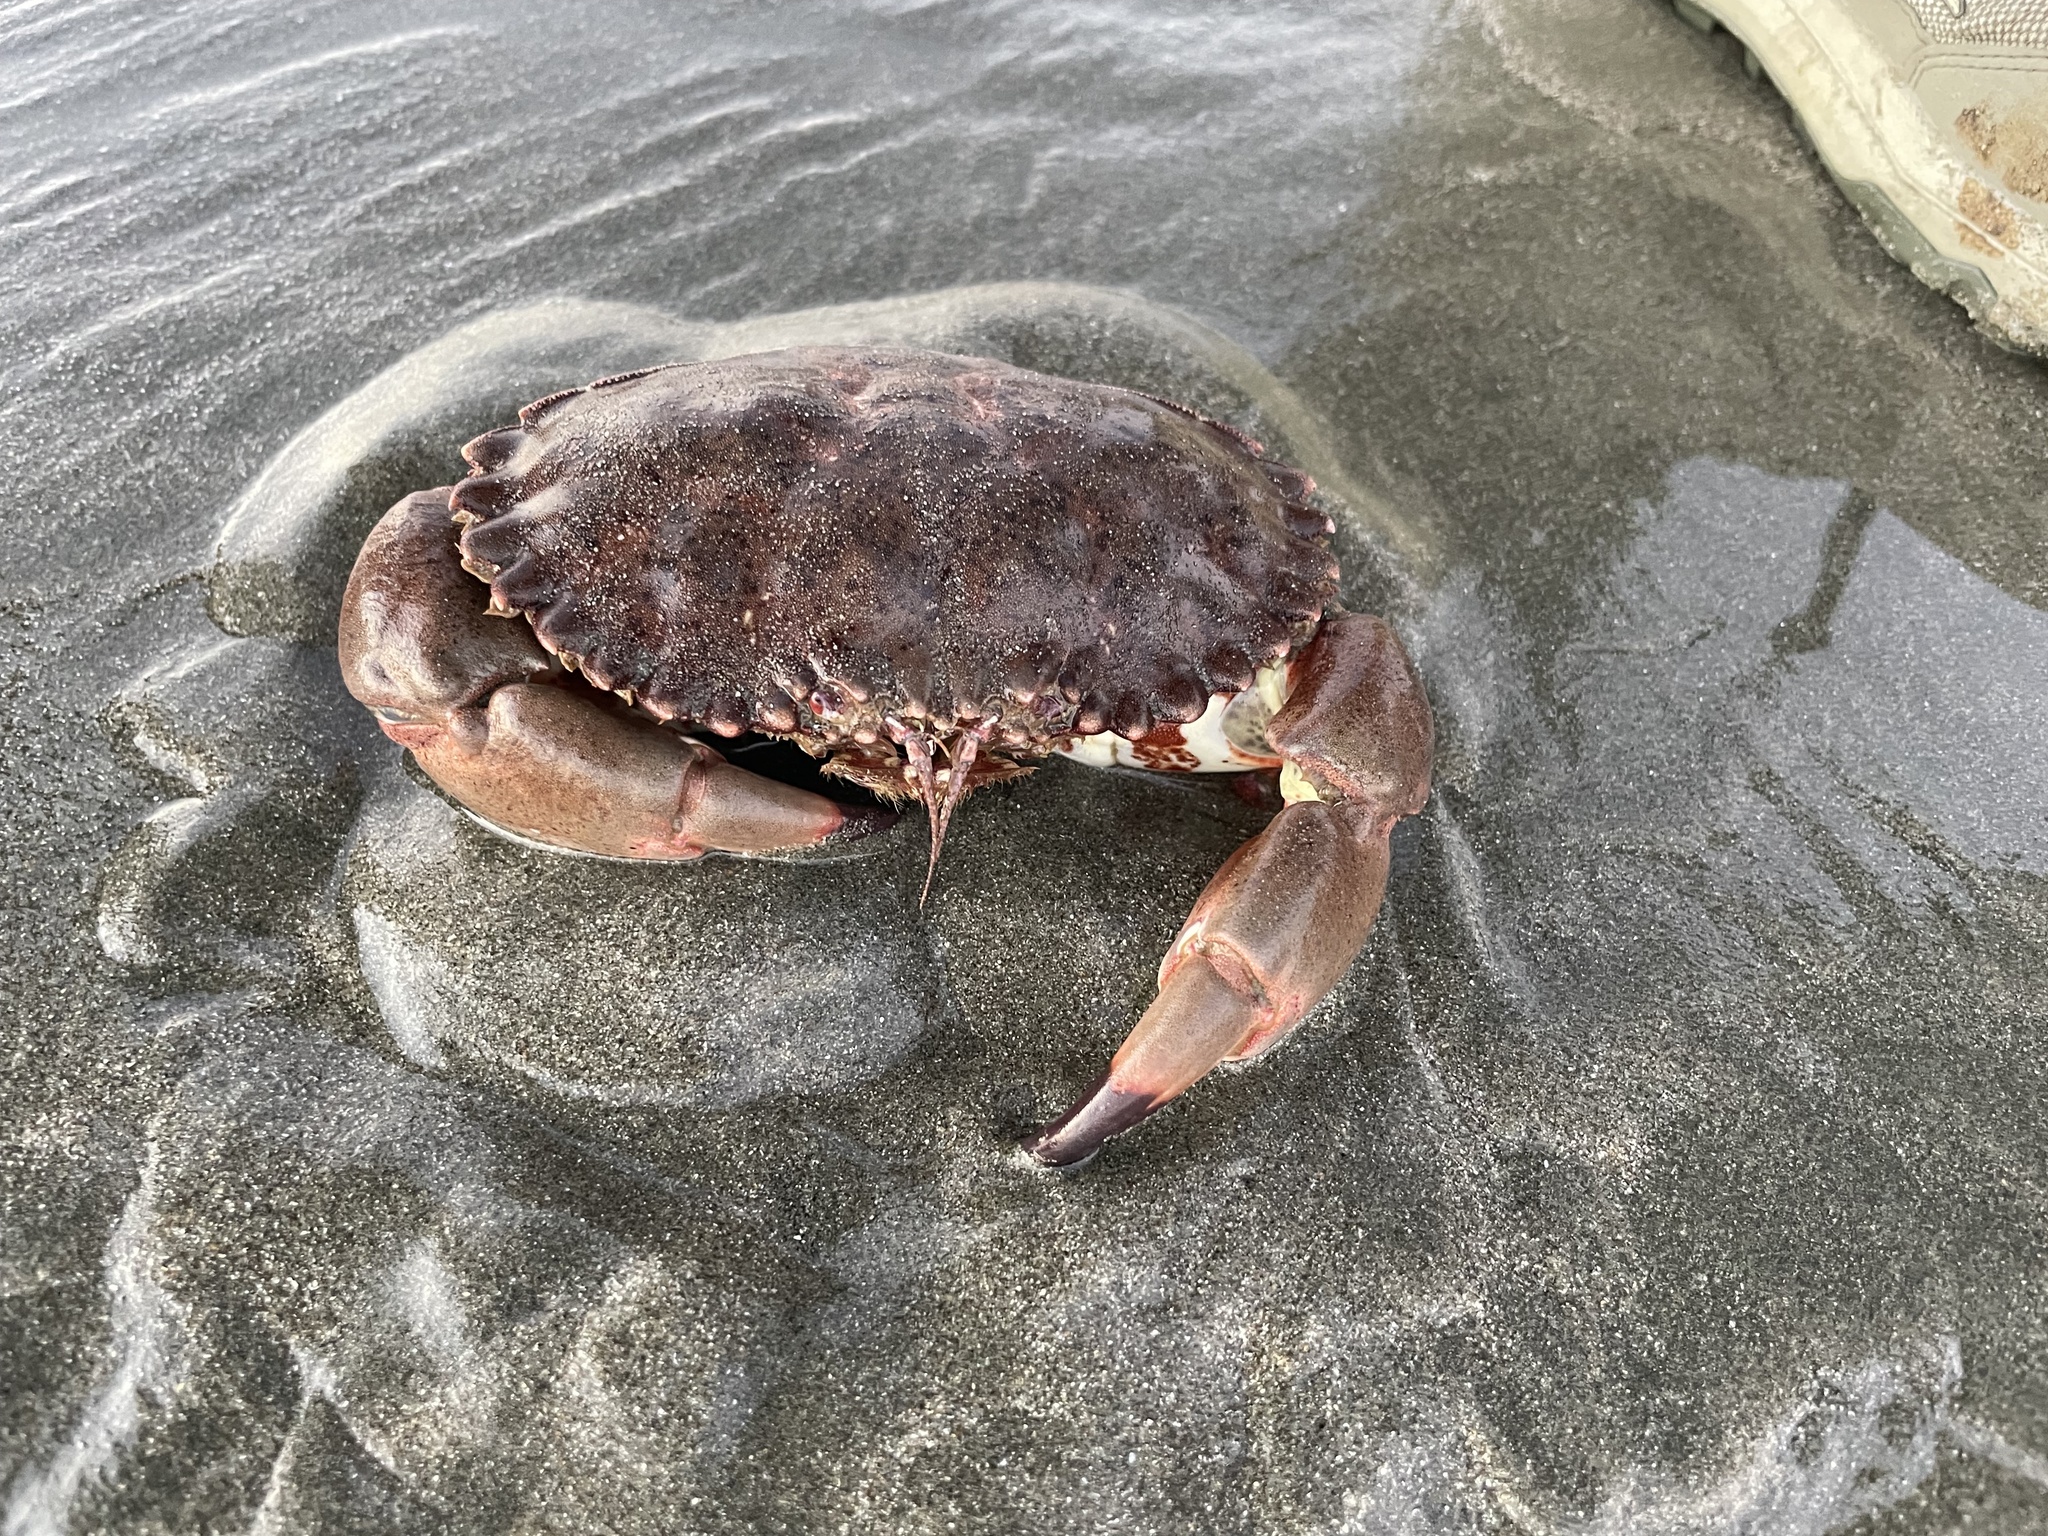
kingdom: Animalia
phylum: Arthropoda
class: Malacostraca
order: Decapoda
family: Cancridae
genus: Romaleon
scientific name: Romaleon antennarium
